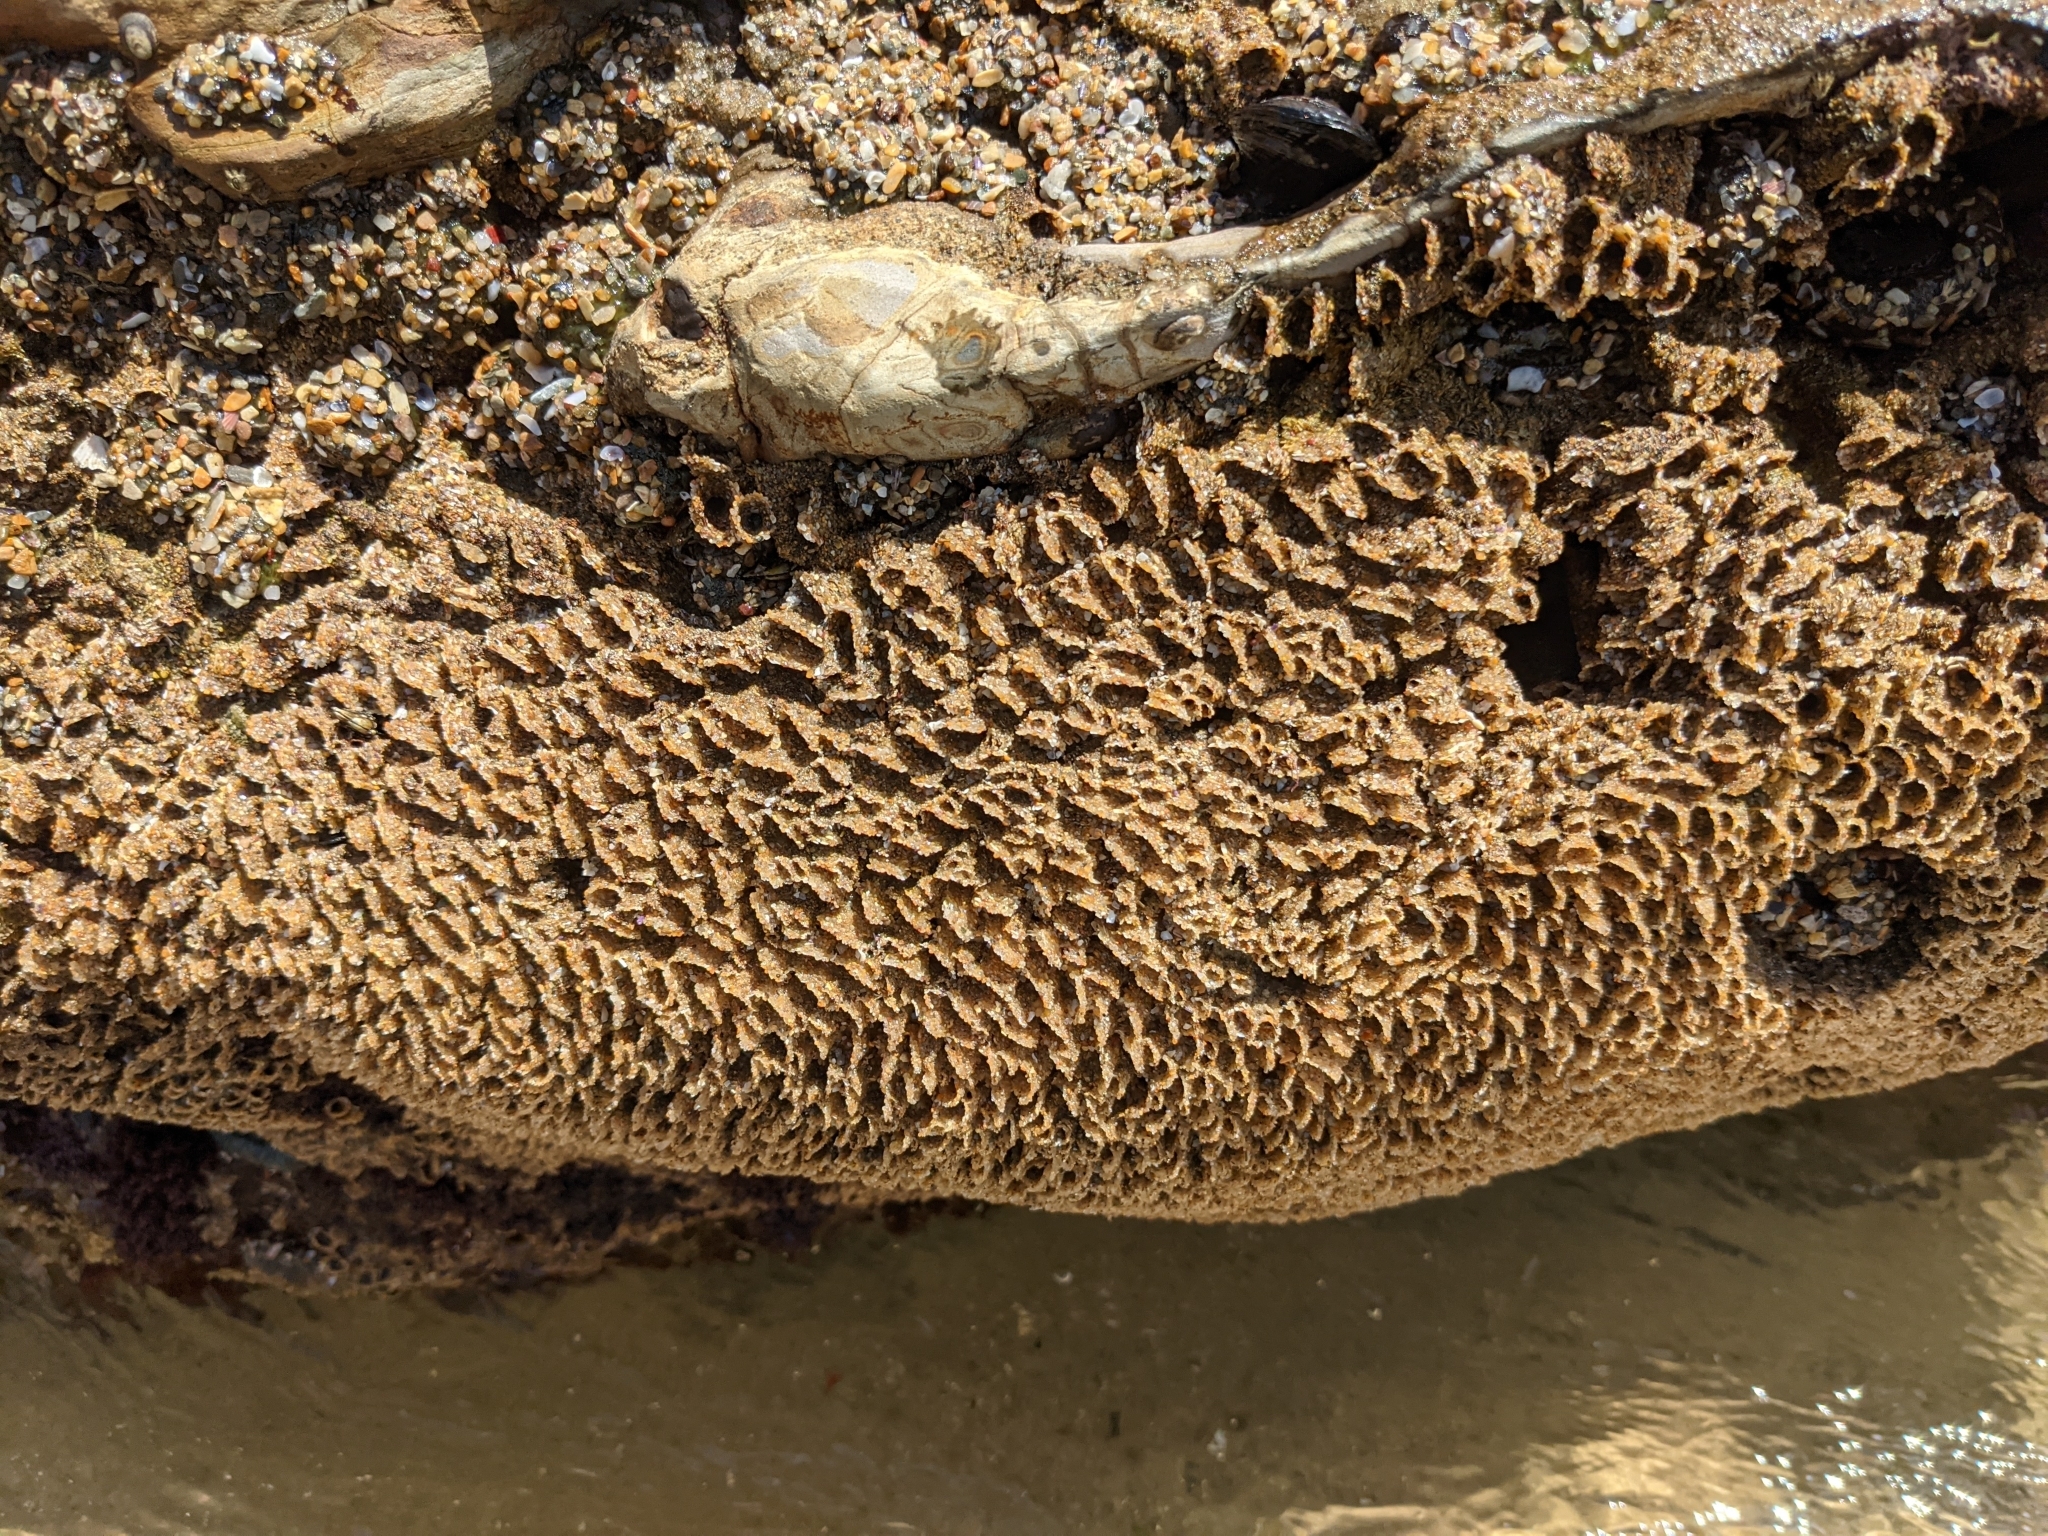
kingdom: Animalia
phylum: Annelida
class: Polychaeta
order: Sabellida
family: Sabellariidae
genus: Phragmatopoma
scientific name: Phragmatopoma californica
